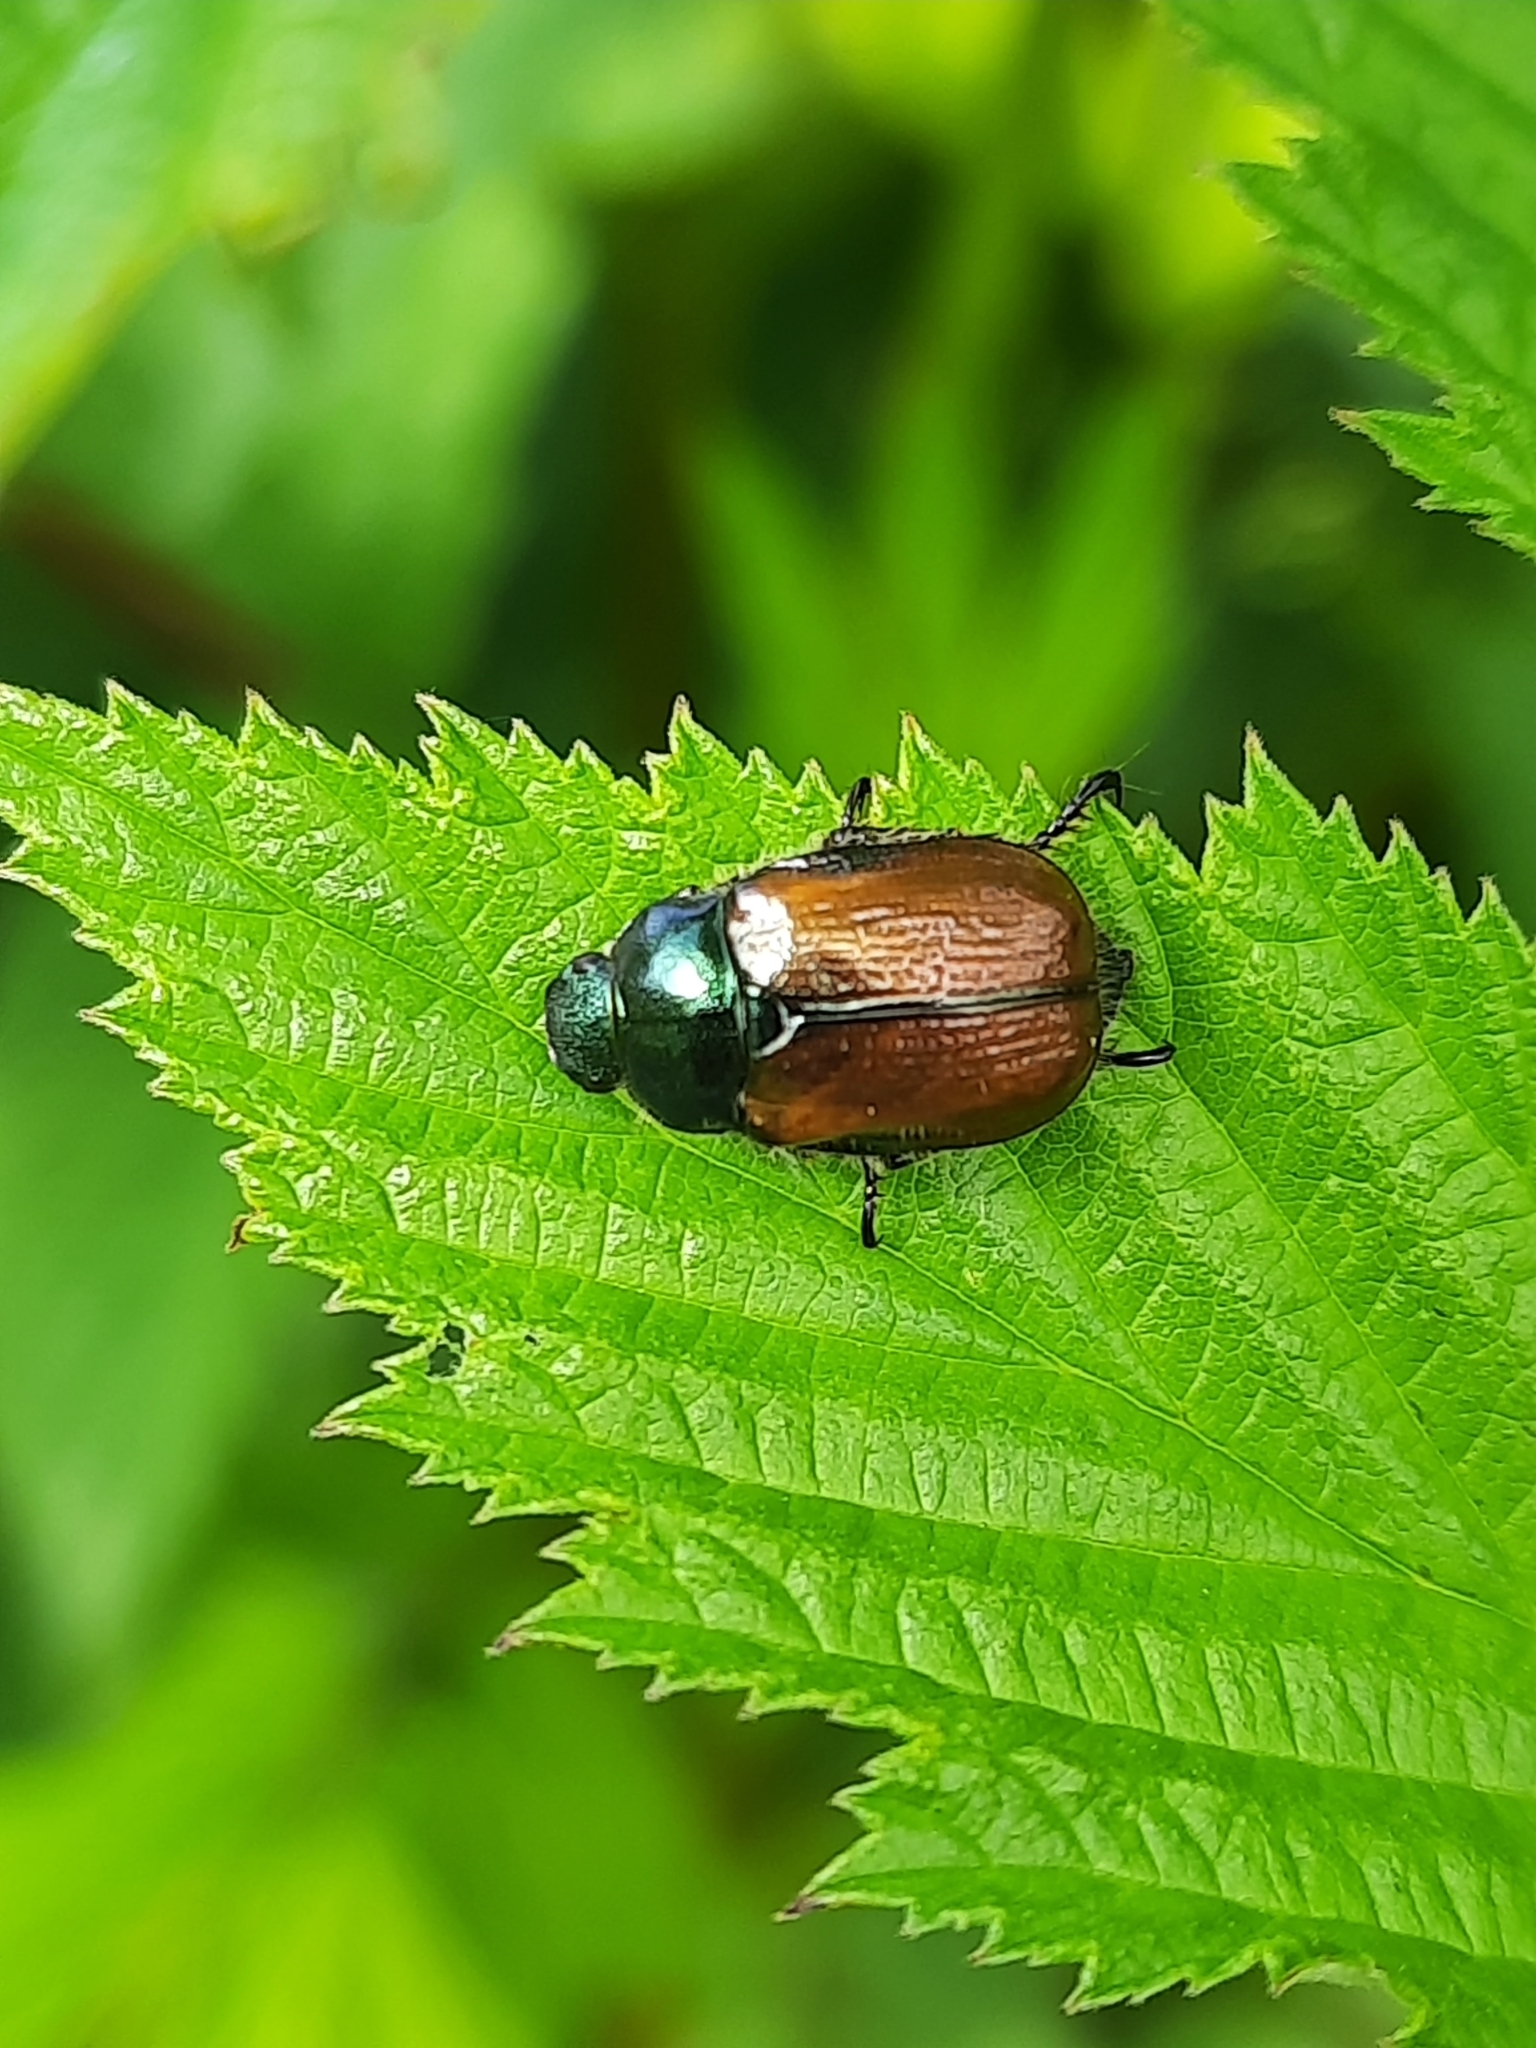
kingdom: Animalia
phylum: Arthropoda
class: Insecta
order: Coleoptera
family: Scarabaeidae
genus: Phyllopertha
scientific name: Phyllopertha horticola
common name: Garden chafer
